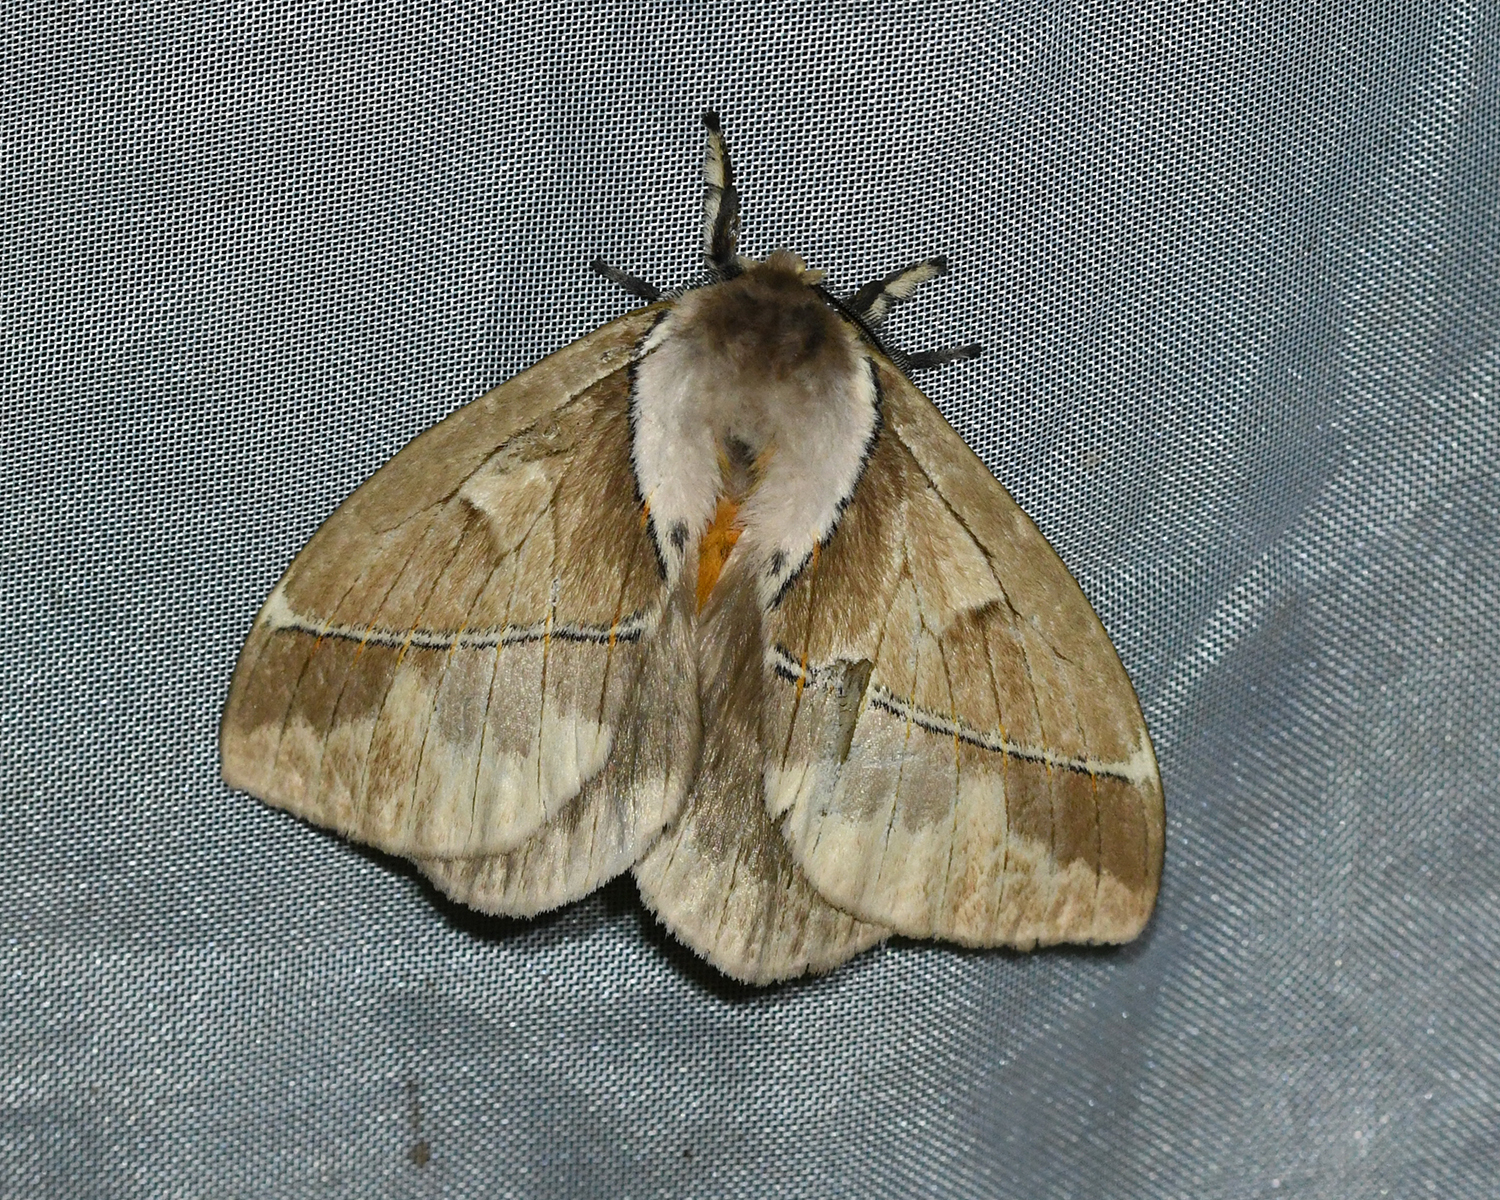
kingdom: Animalia
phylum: Arthropoda
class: Insecta
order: Lepidoptera
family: Saturniidae
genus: Pseudodirphia
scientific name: Pseudodirphia eumedide
